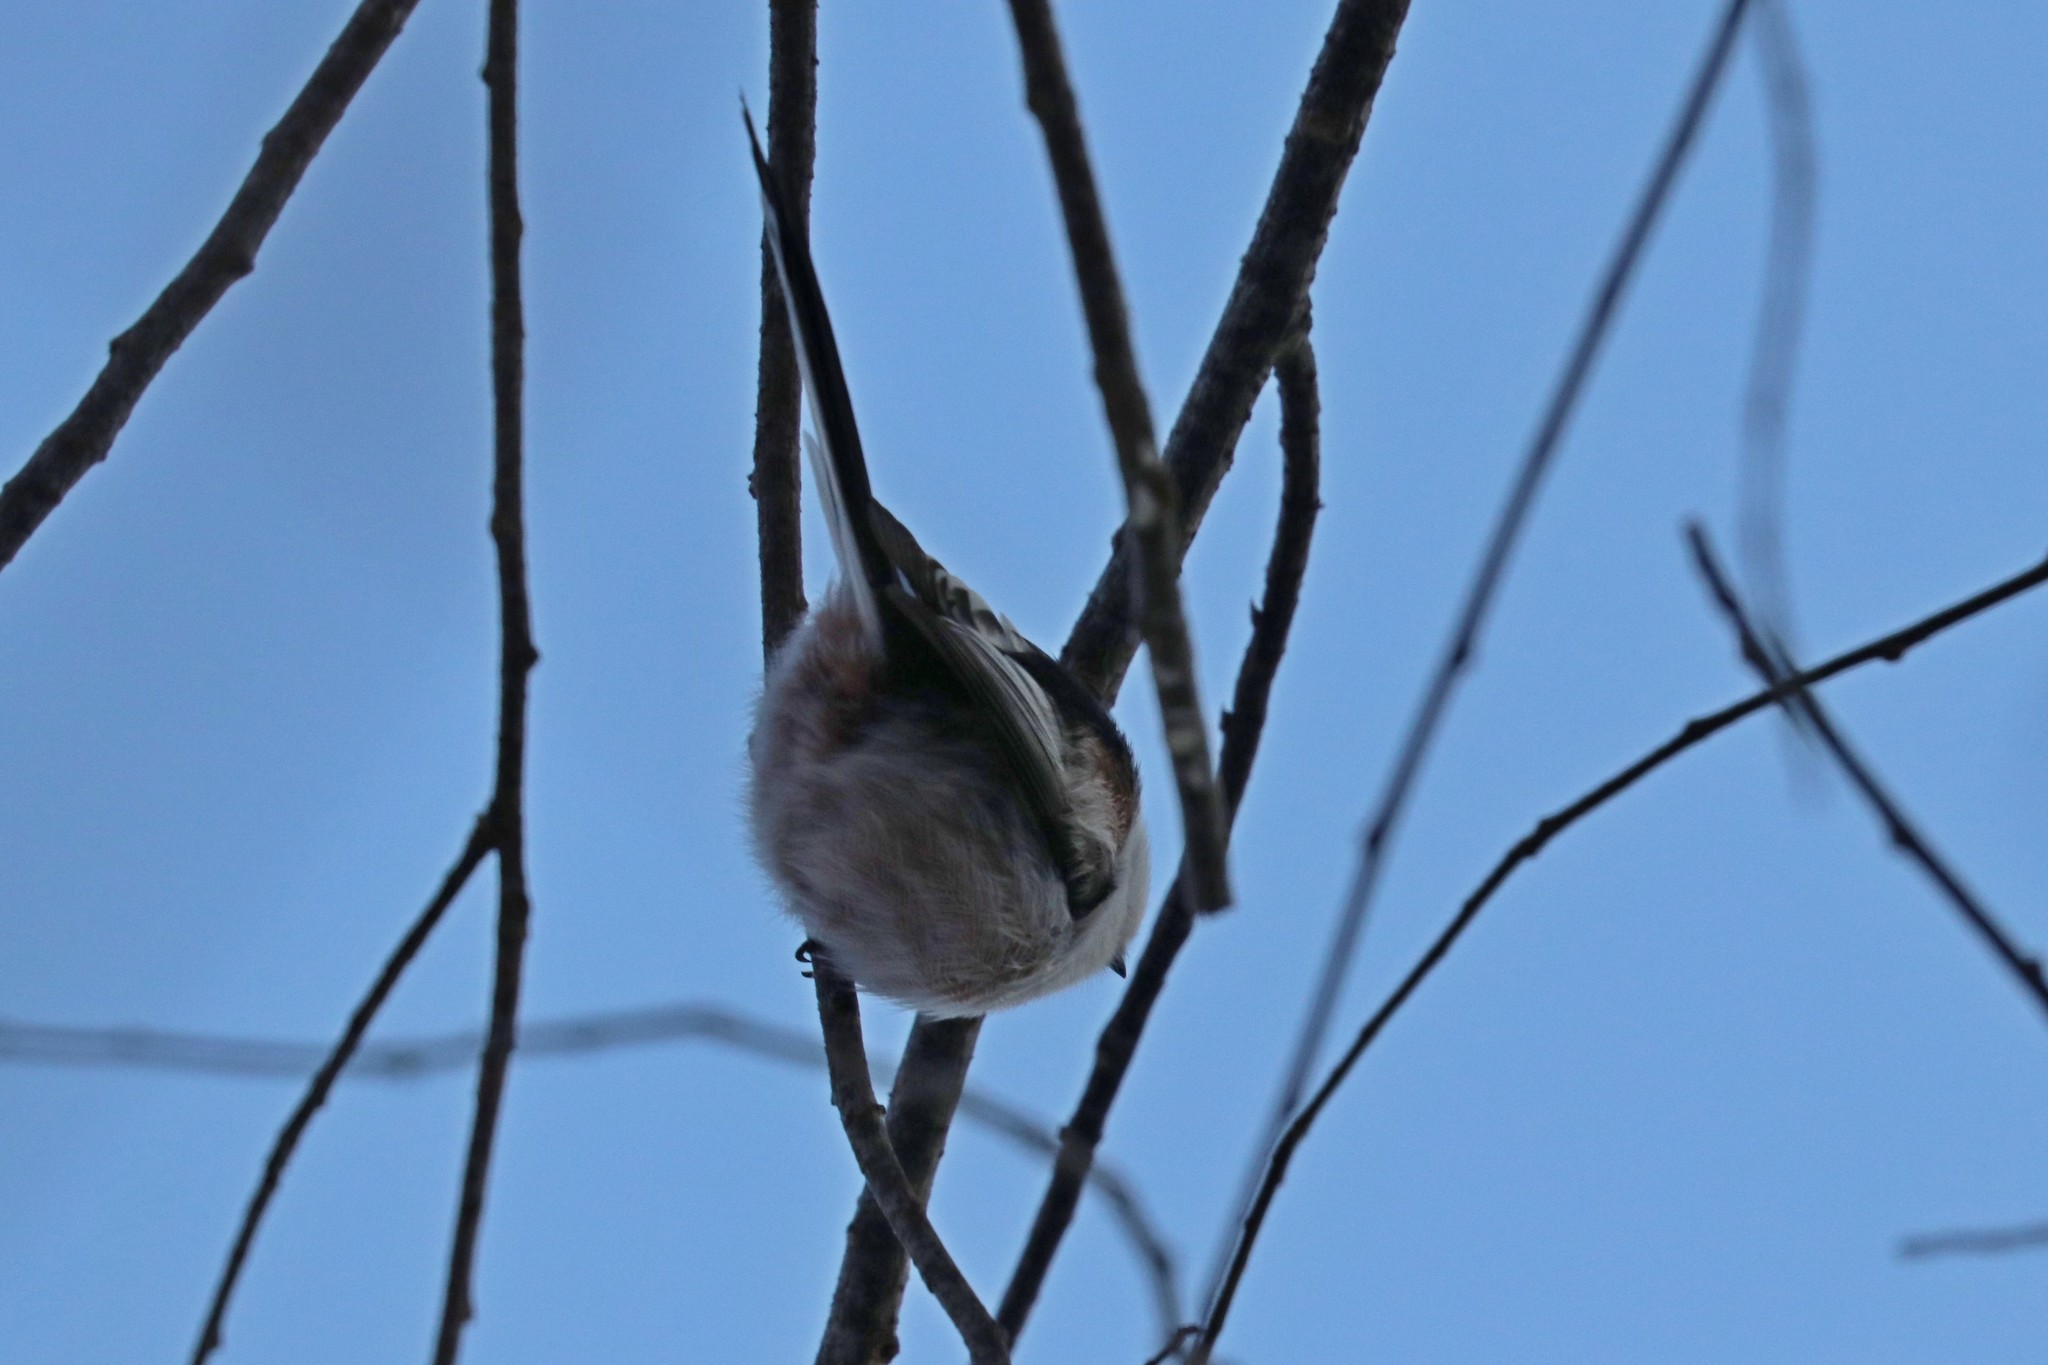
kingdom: Animalia
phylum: Chordata
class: Aves
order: Passeriformes
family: Aegithalidae
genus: Aegithalos
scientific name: Aegithalos caudatus
